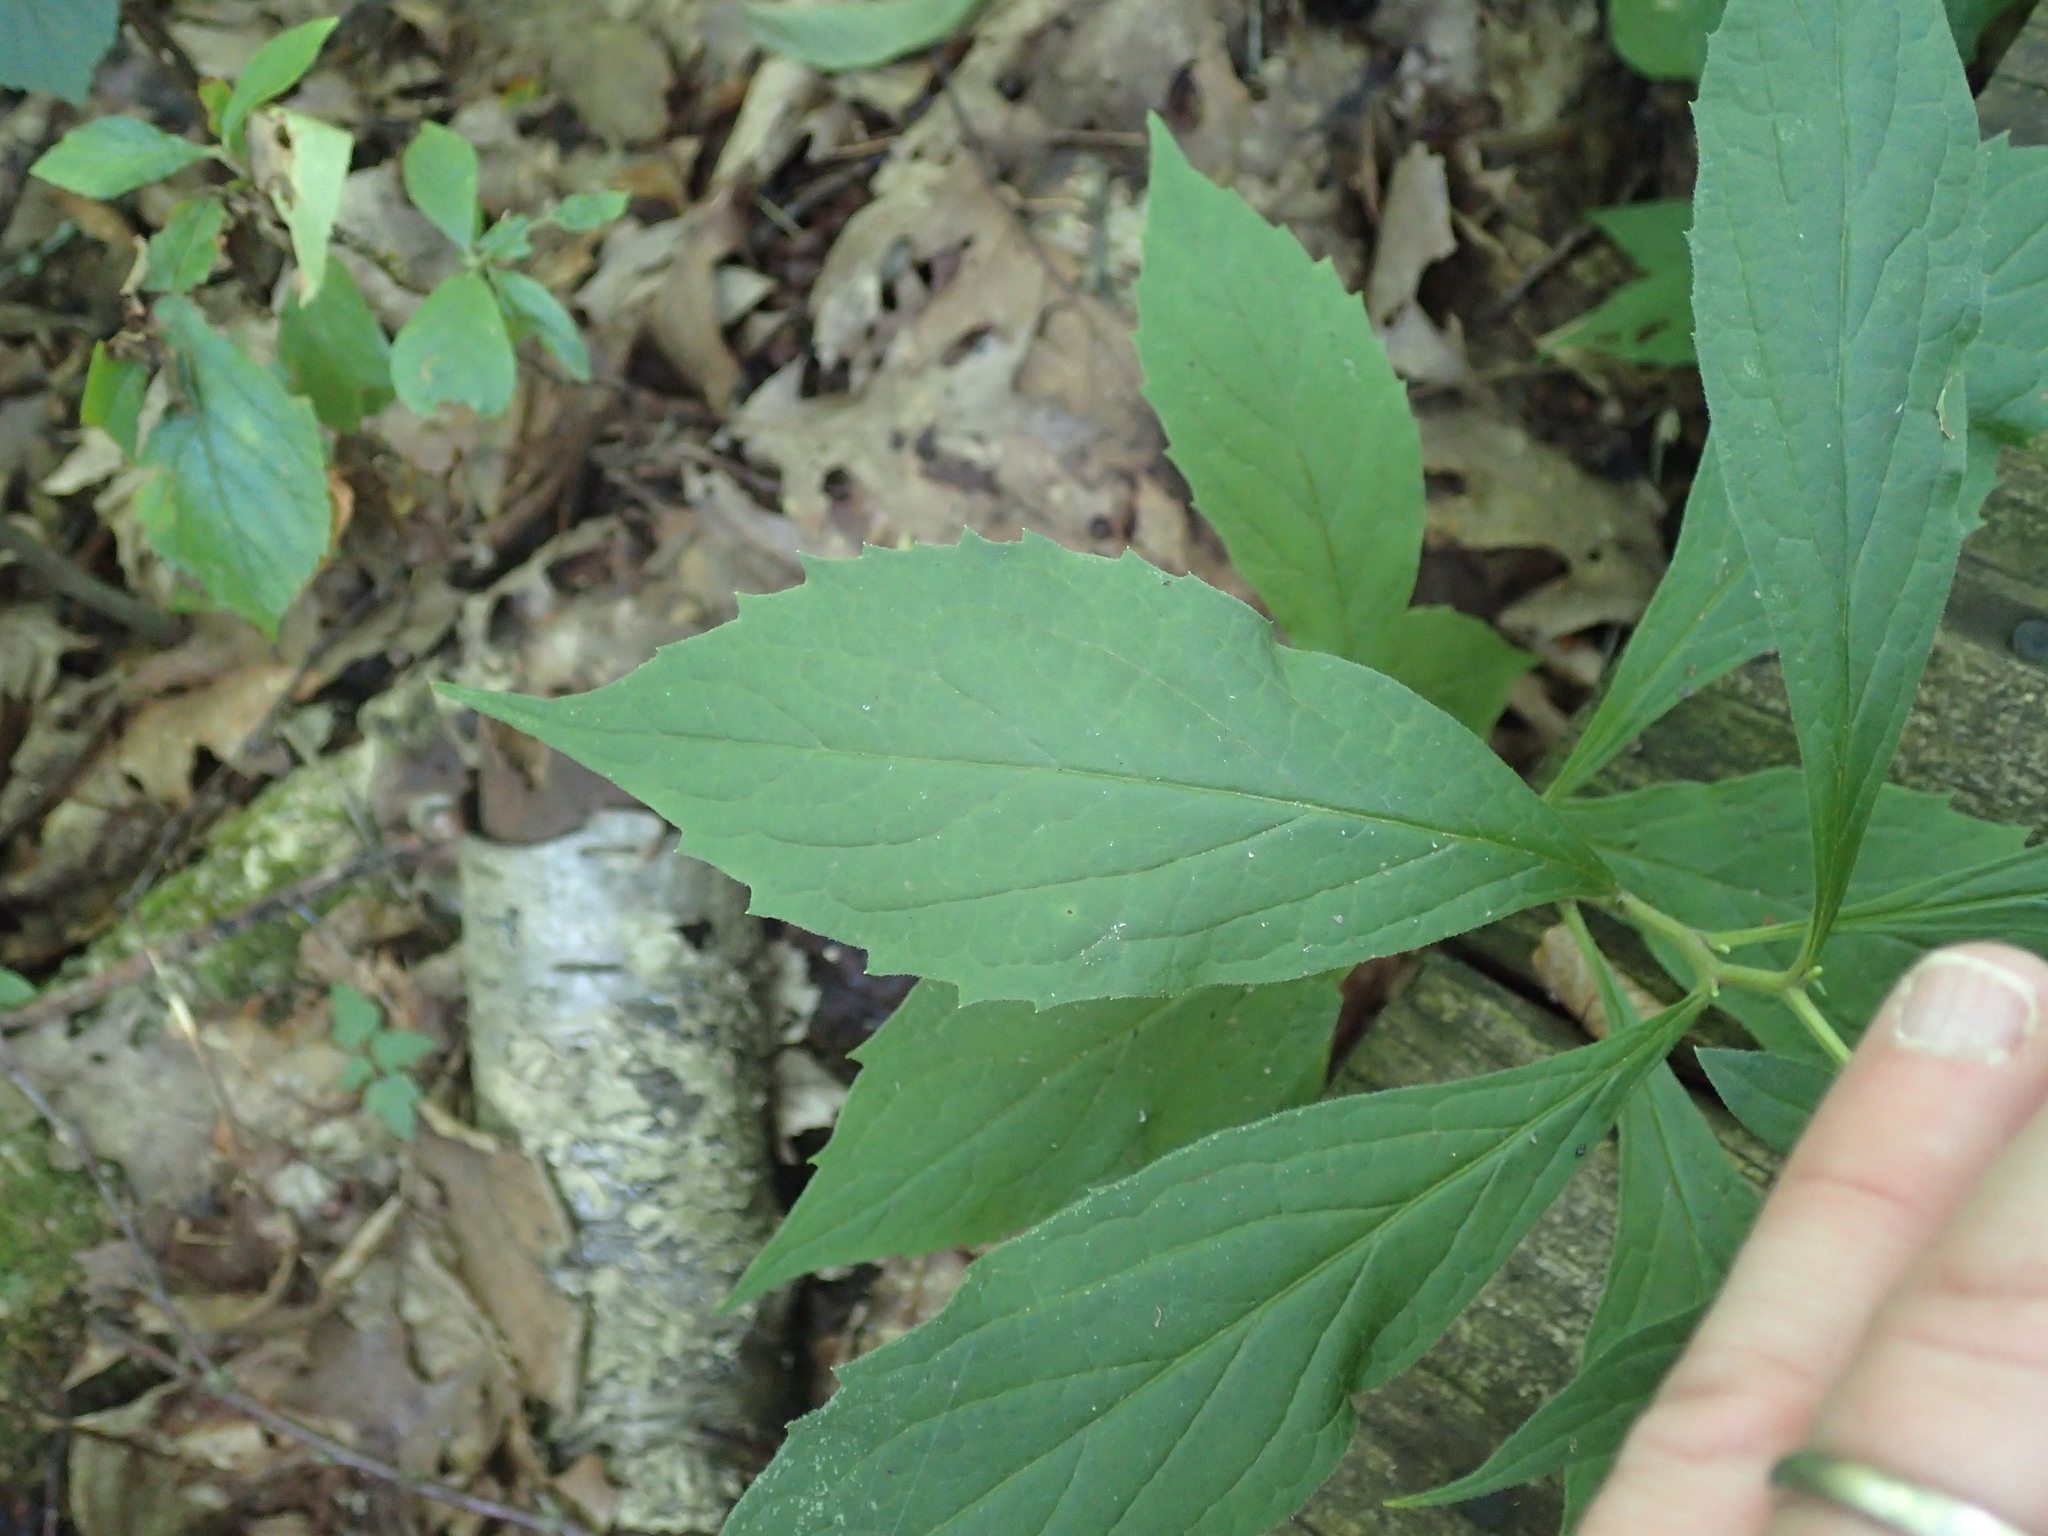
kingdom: Plantae
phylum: Tracheophyta
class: Magnoliopsida
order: Asterales
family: Asteraceae
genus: Oclemena
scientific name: Oclemena acuminata
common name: Mountain aster
